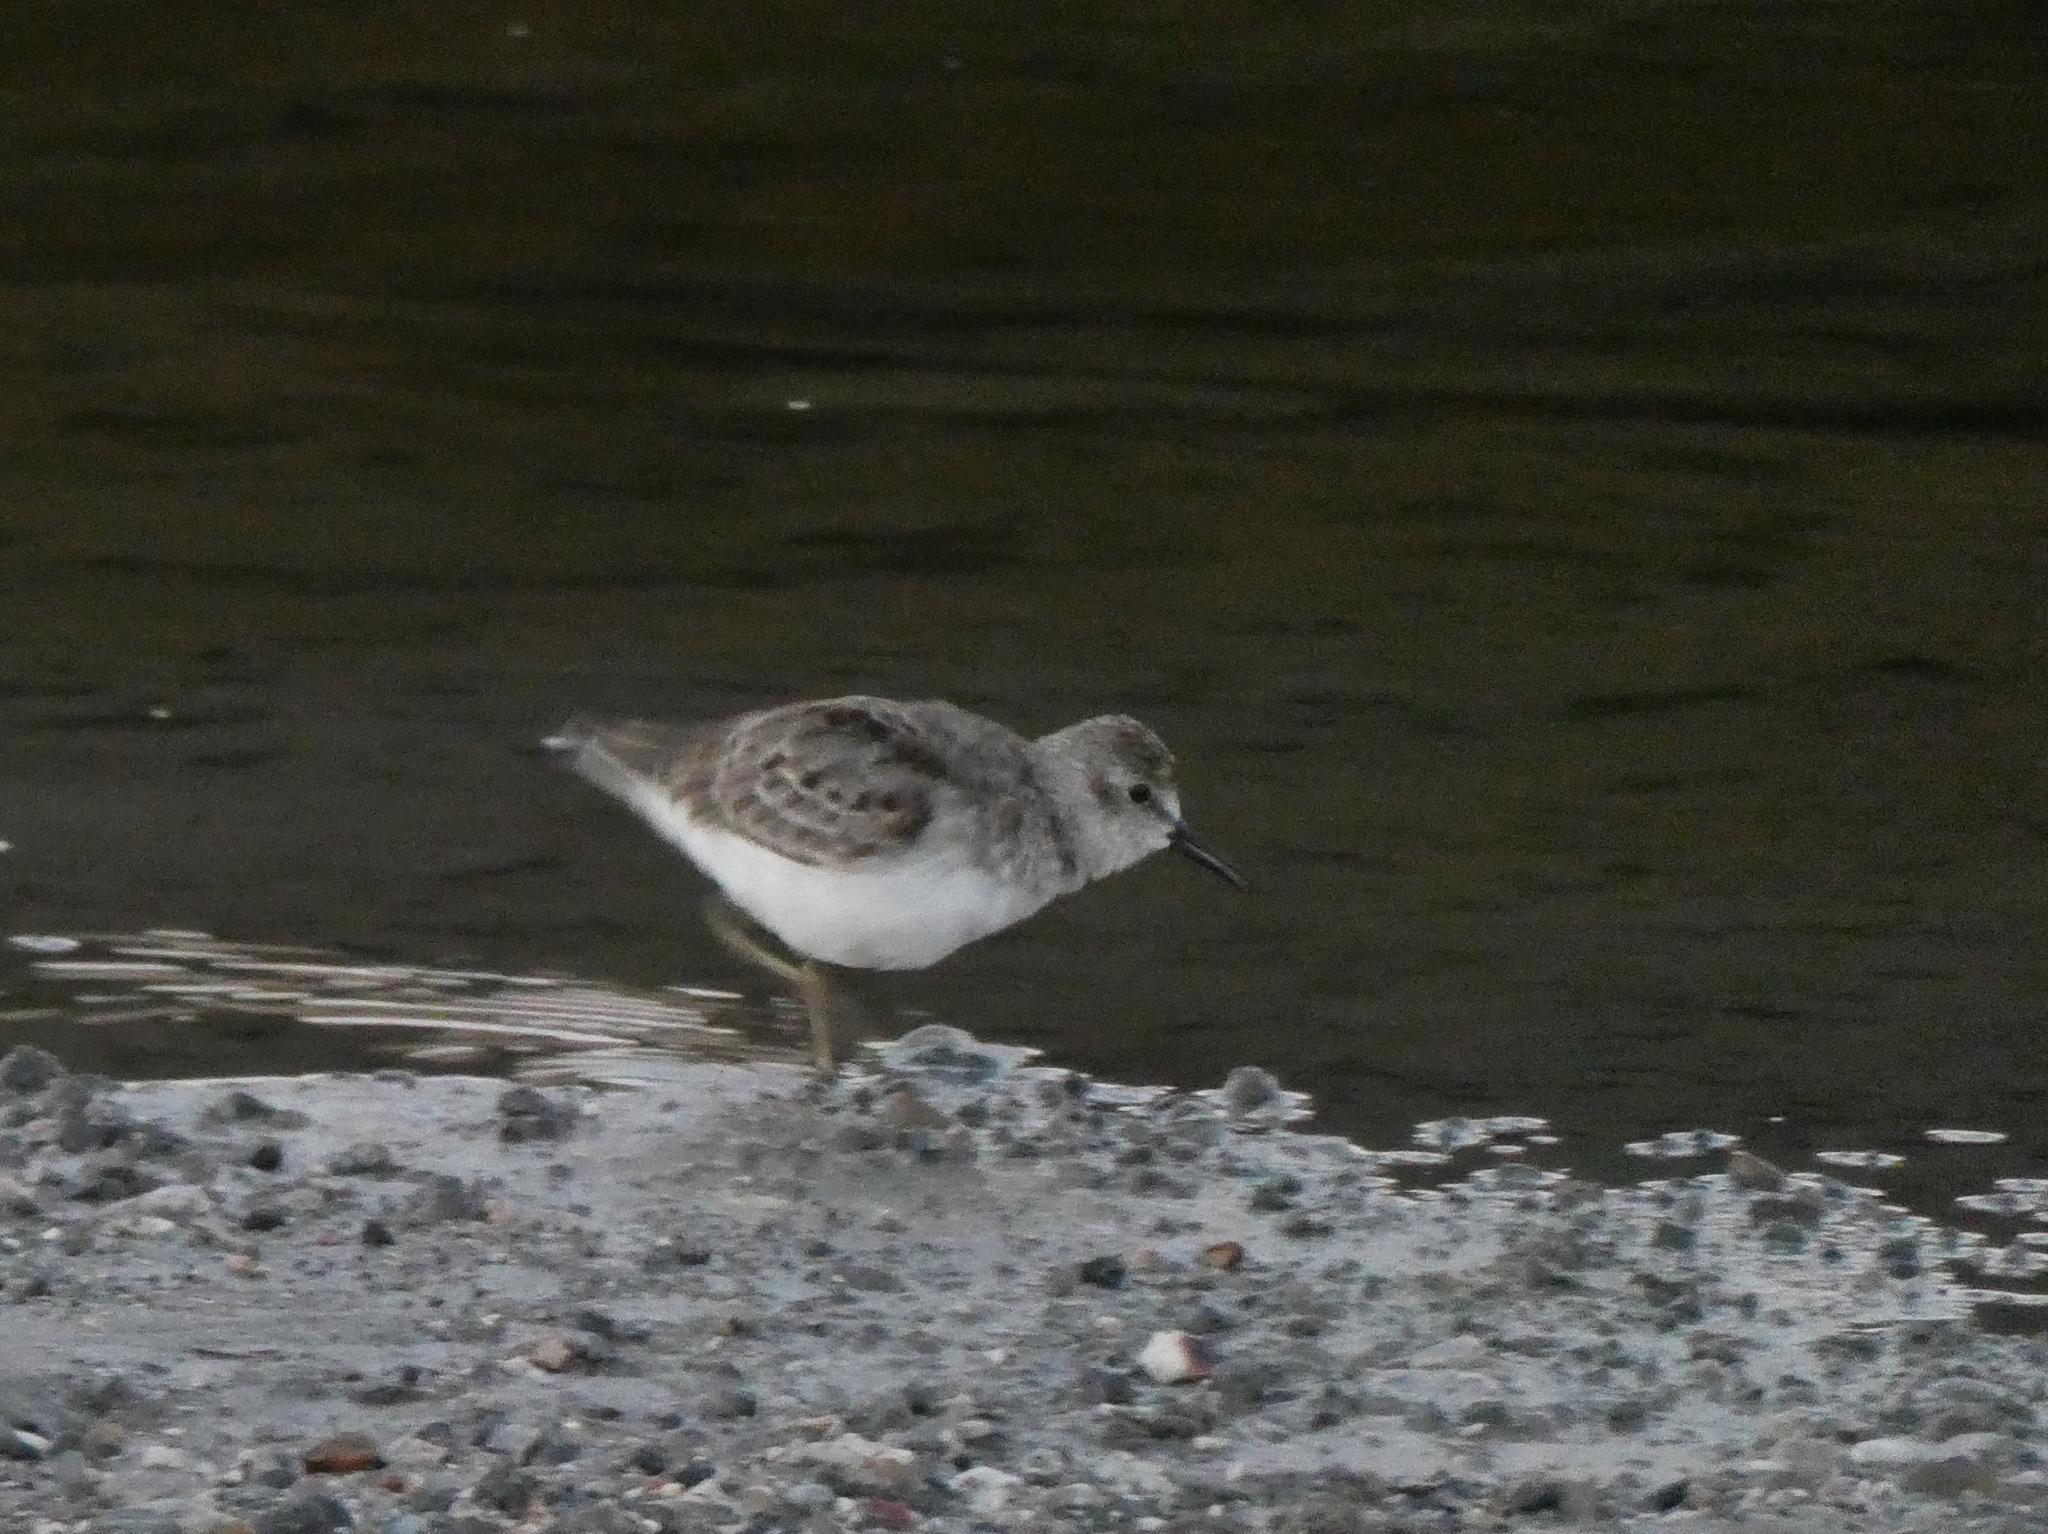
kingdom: Animalia
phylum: Chordata
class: Aves
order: Charadriiformes
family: Scolopacidae
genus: Calidris
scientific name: Calidris minutilla
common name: Least sandpiper
